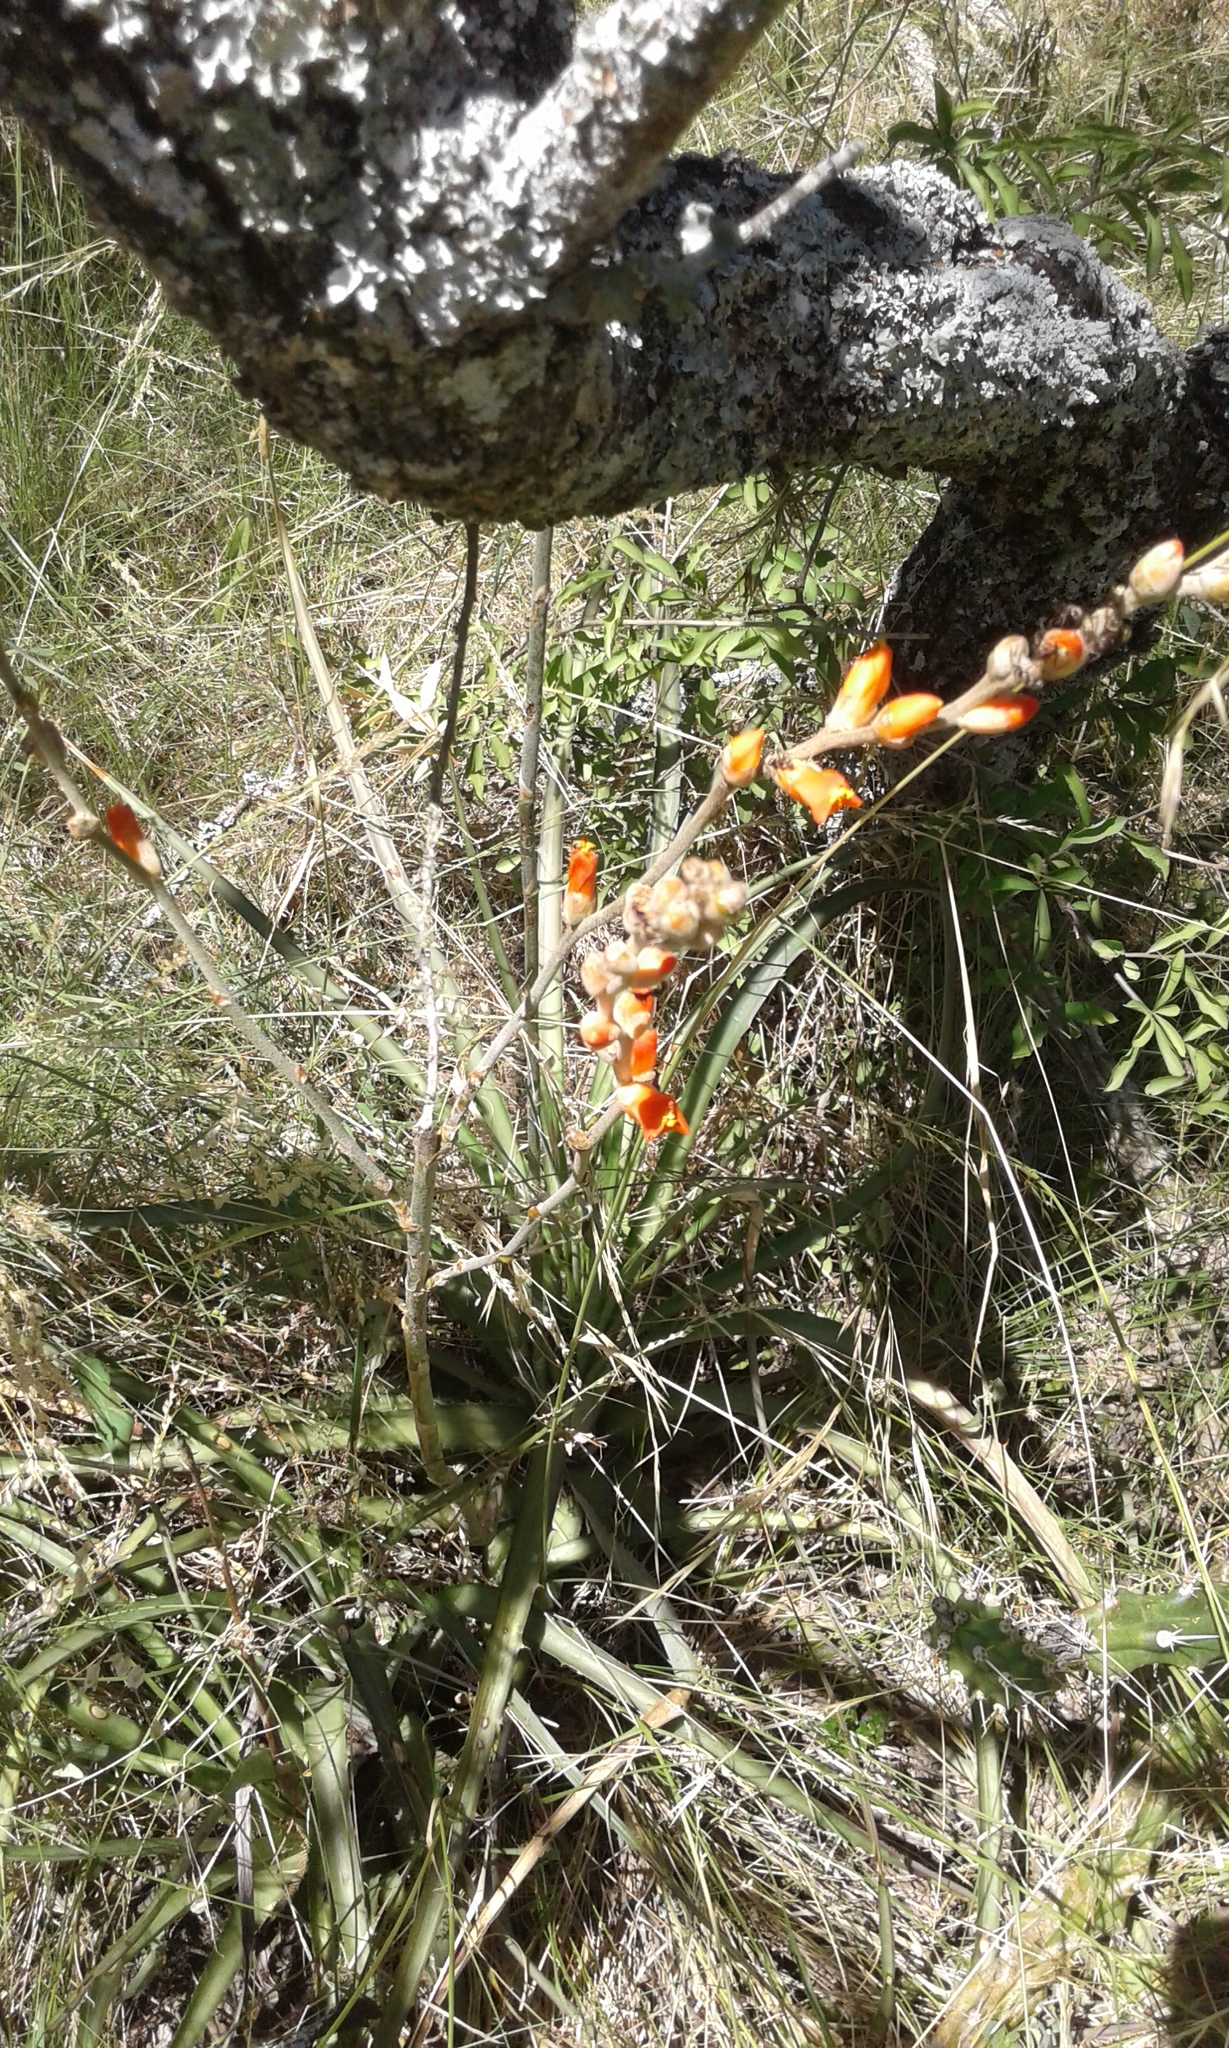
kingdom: Plantae
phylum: Tracheophyta
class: Liliopsida
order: Poales
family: Bromeliaceae
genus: Dyckia
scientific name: Dyckia ragonesei
